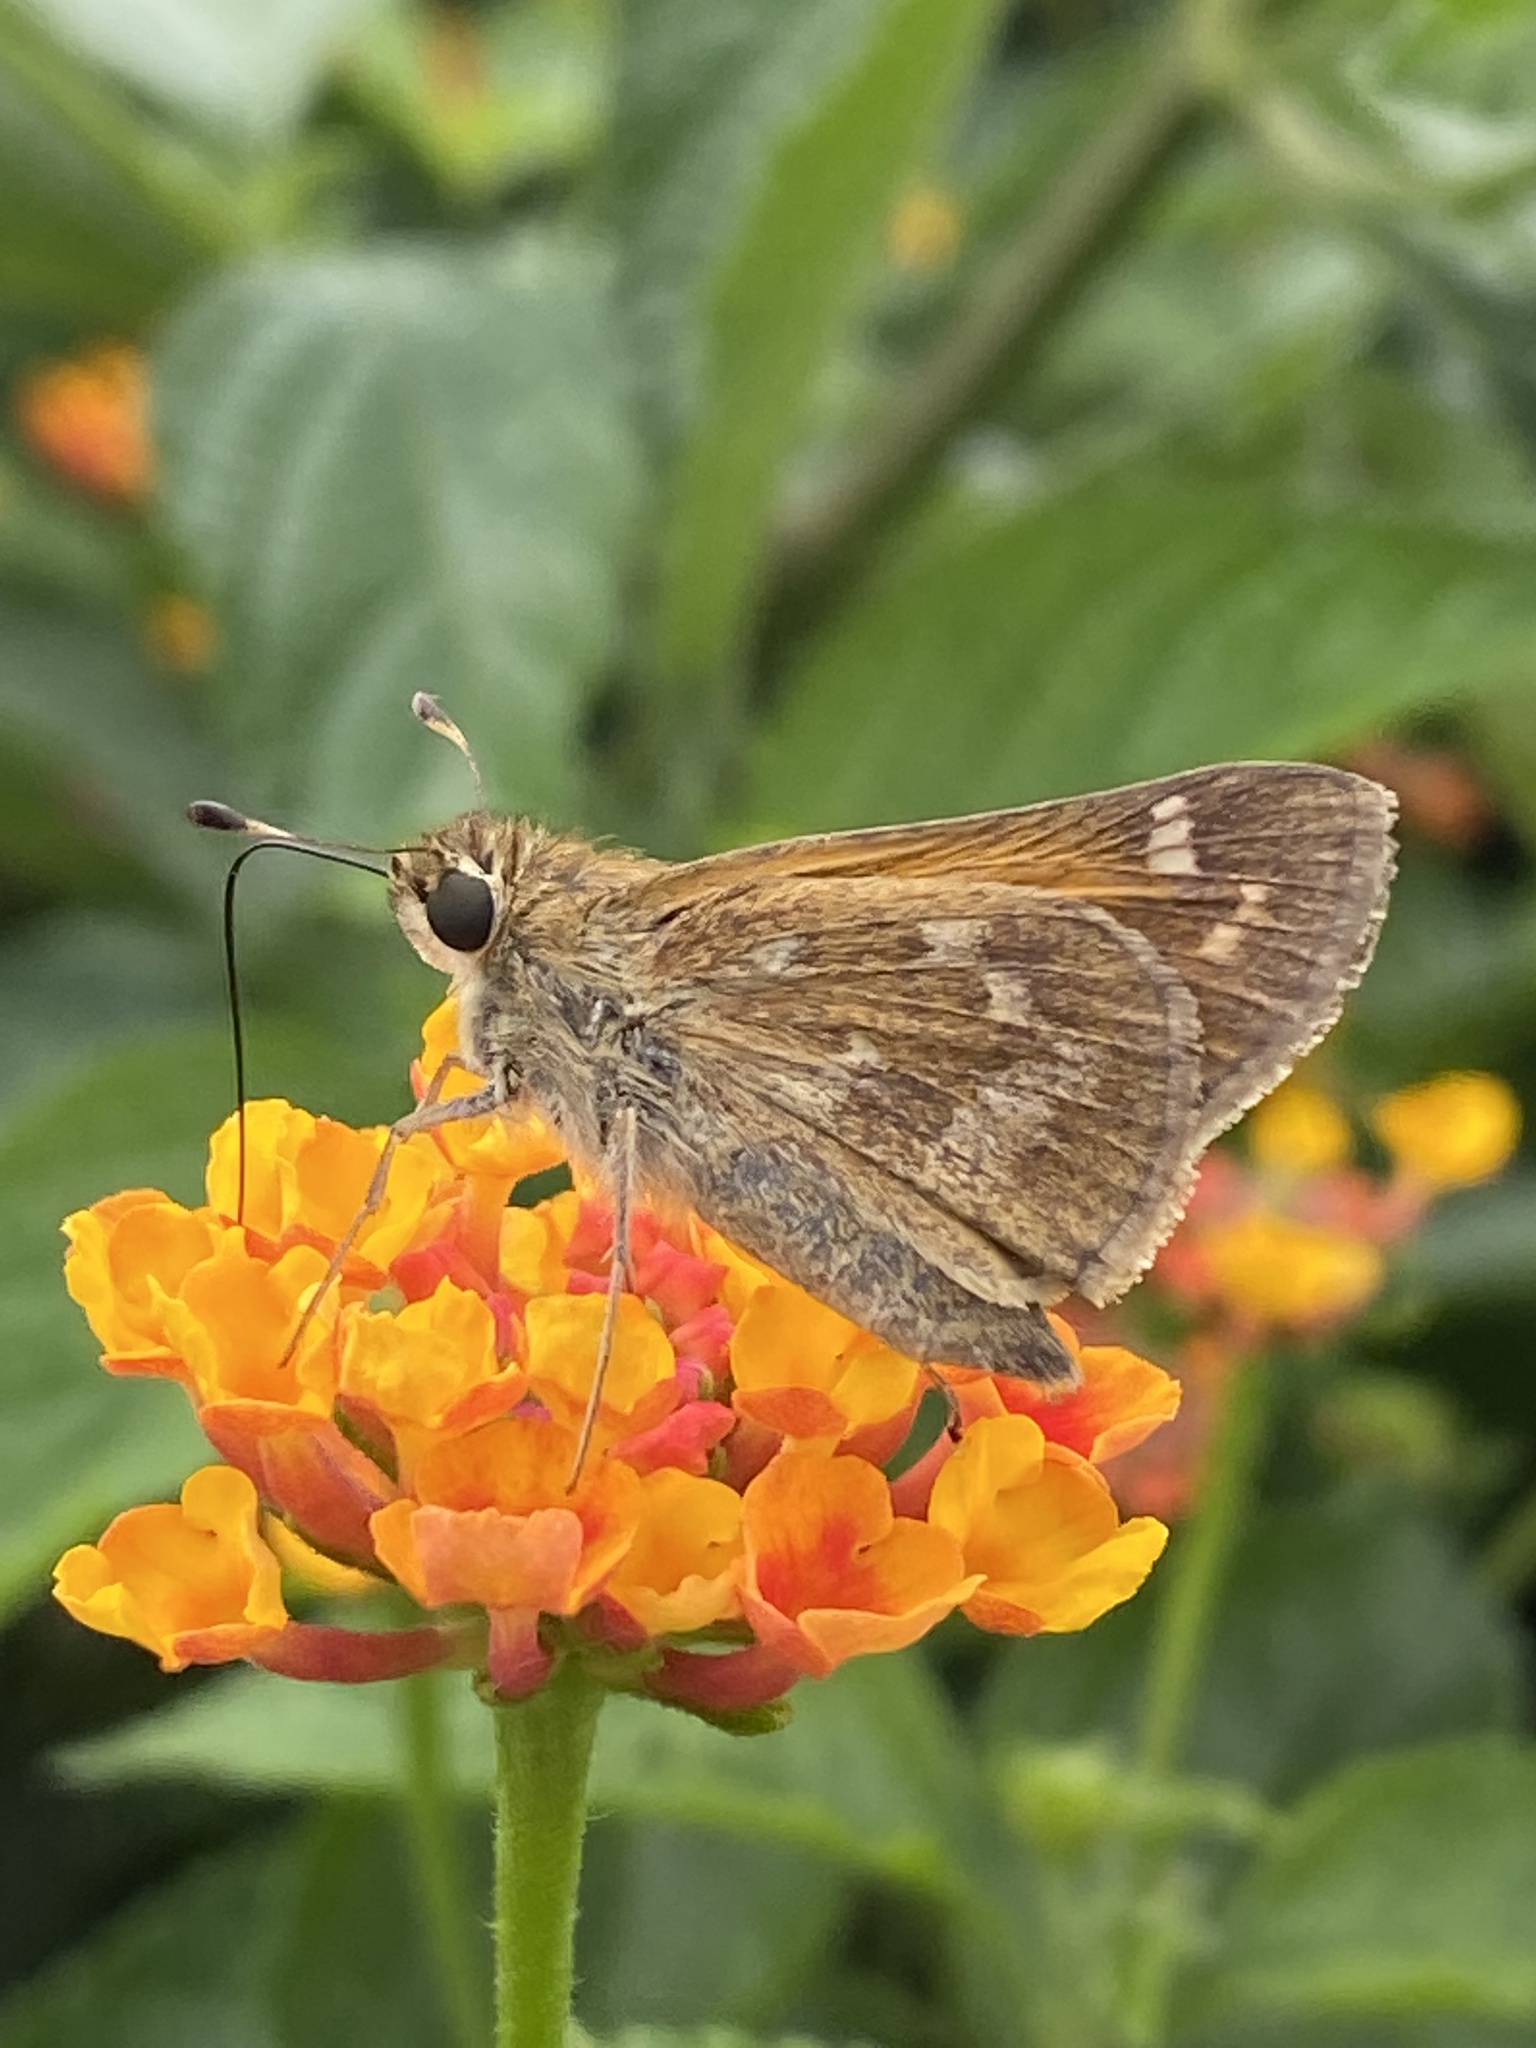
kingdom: Animalia
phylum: Arthropoda
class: Insecta
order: Lepidoptera
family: Hesperiidae
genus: Atalopedes
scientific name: Atalopedes
